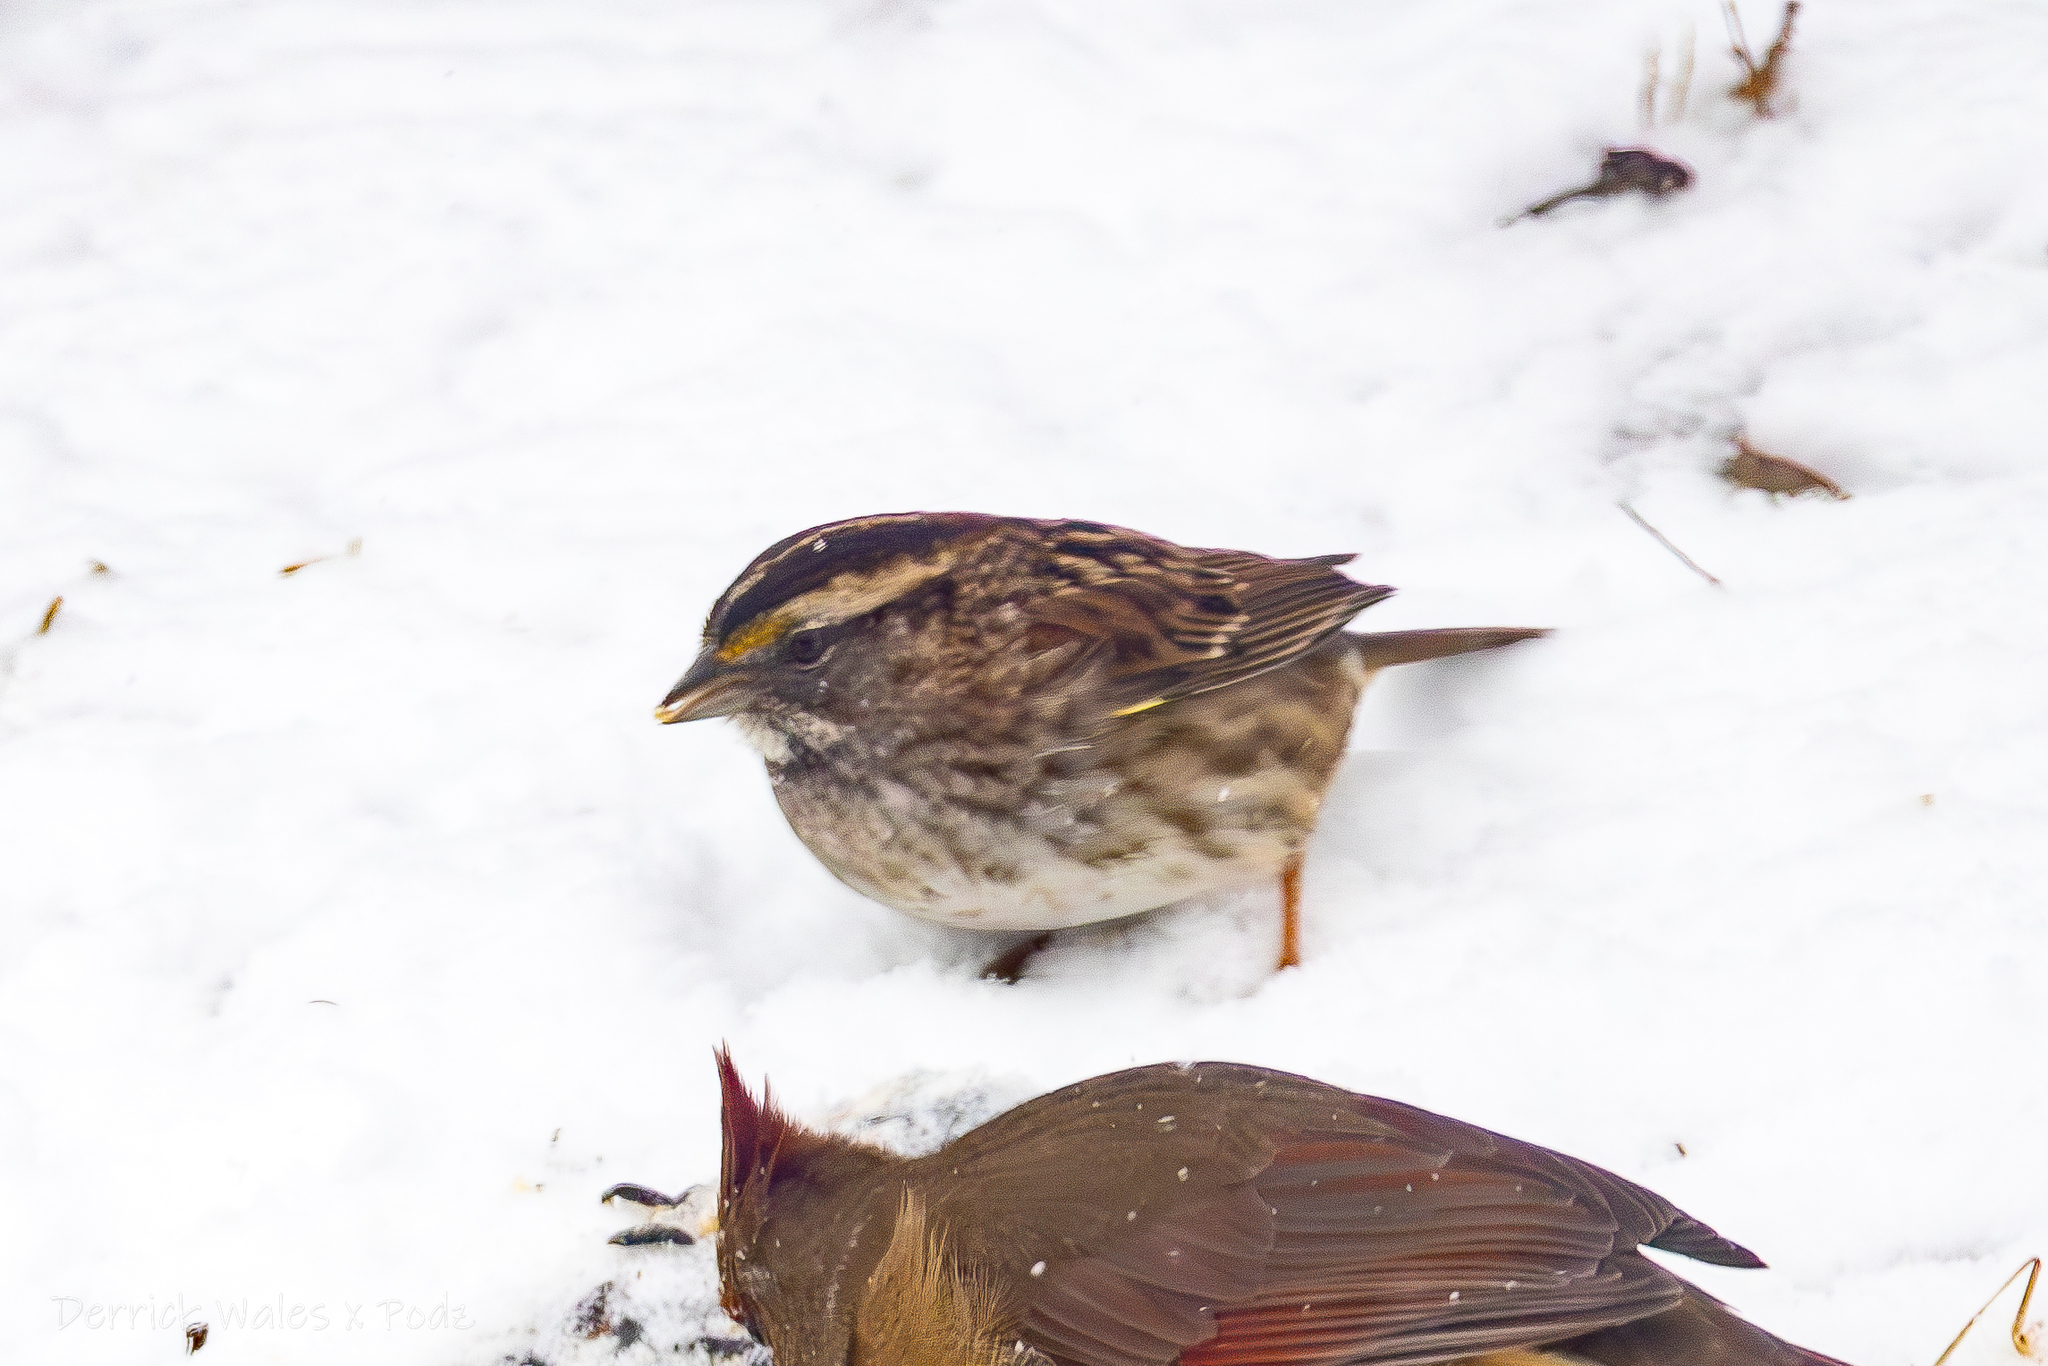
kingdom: Animalia
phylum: Chordata
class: Aves
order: Passeriformes
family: Passerellidae
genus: Zonotrichia
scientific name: Zonotrichia albicollis
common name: White-throated sparrow
